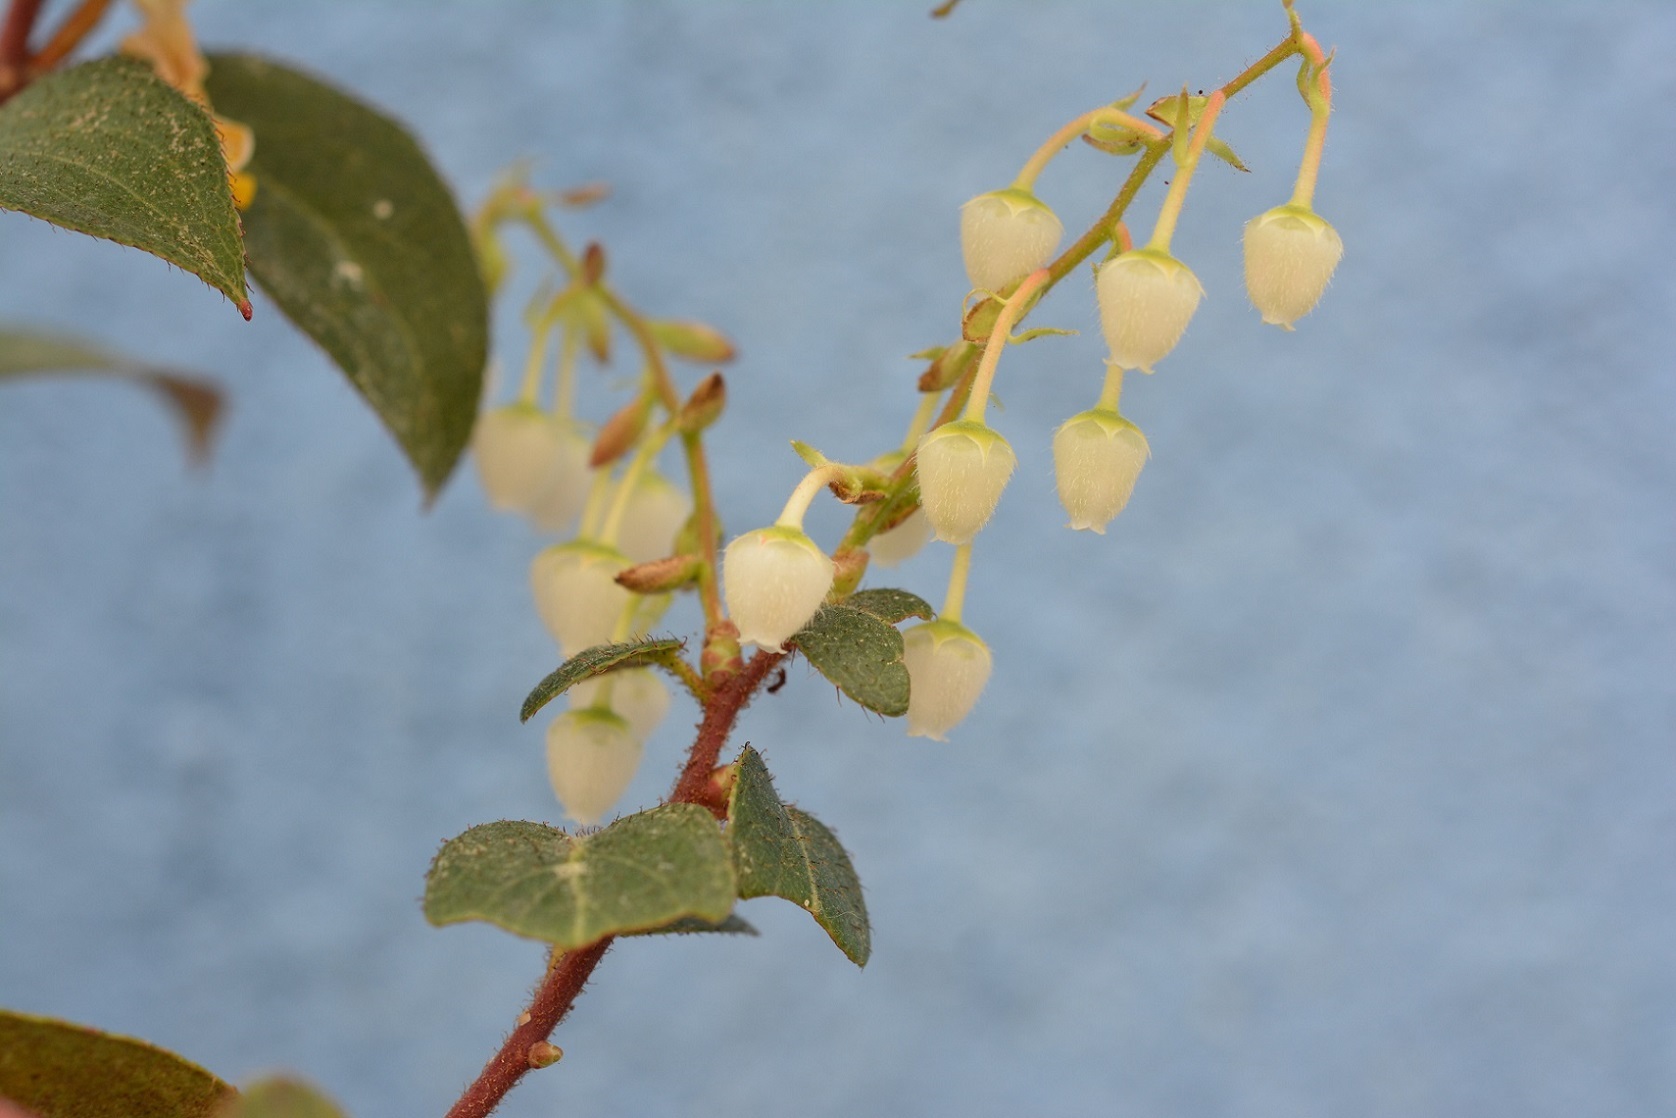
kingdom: Plantae
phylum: Tracheophyta
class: Magnoliopsida
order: Ericales
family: Ericaceae
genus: Gaultheria
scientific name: Gaultheria erecta
